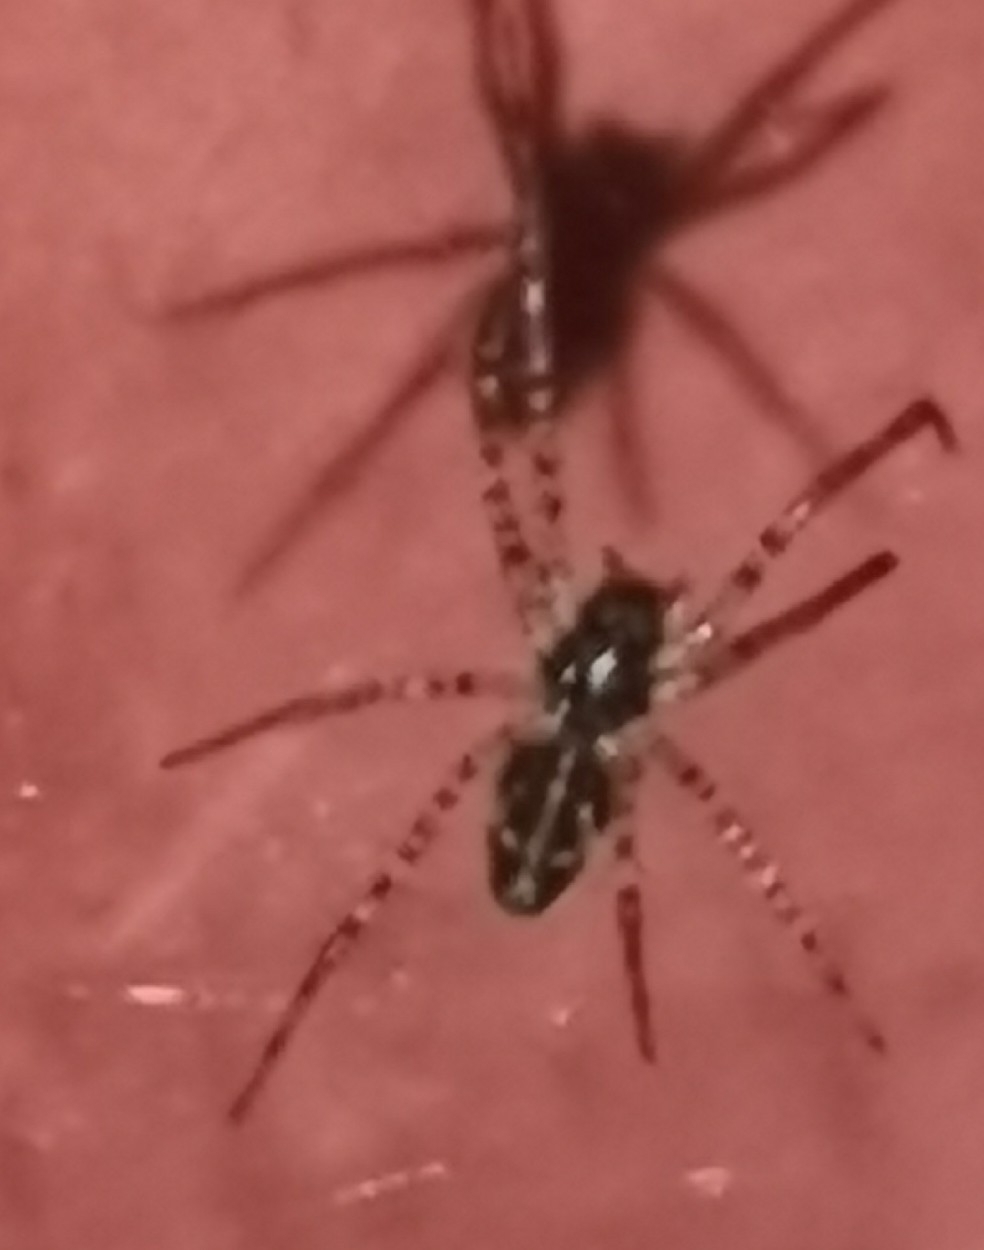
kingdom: Animalia
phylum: Arthropoda
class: Arachnida
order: Araneae
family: Linyphiidae
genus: Neriene
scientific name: Neriene montana
